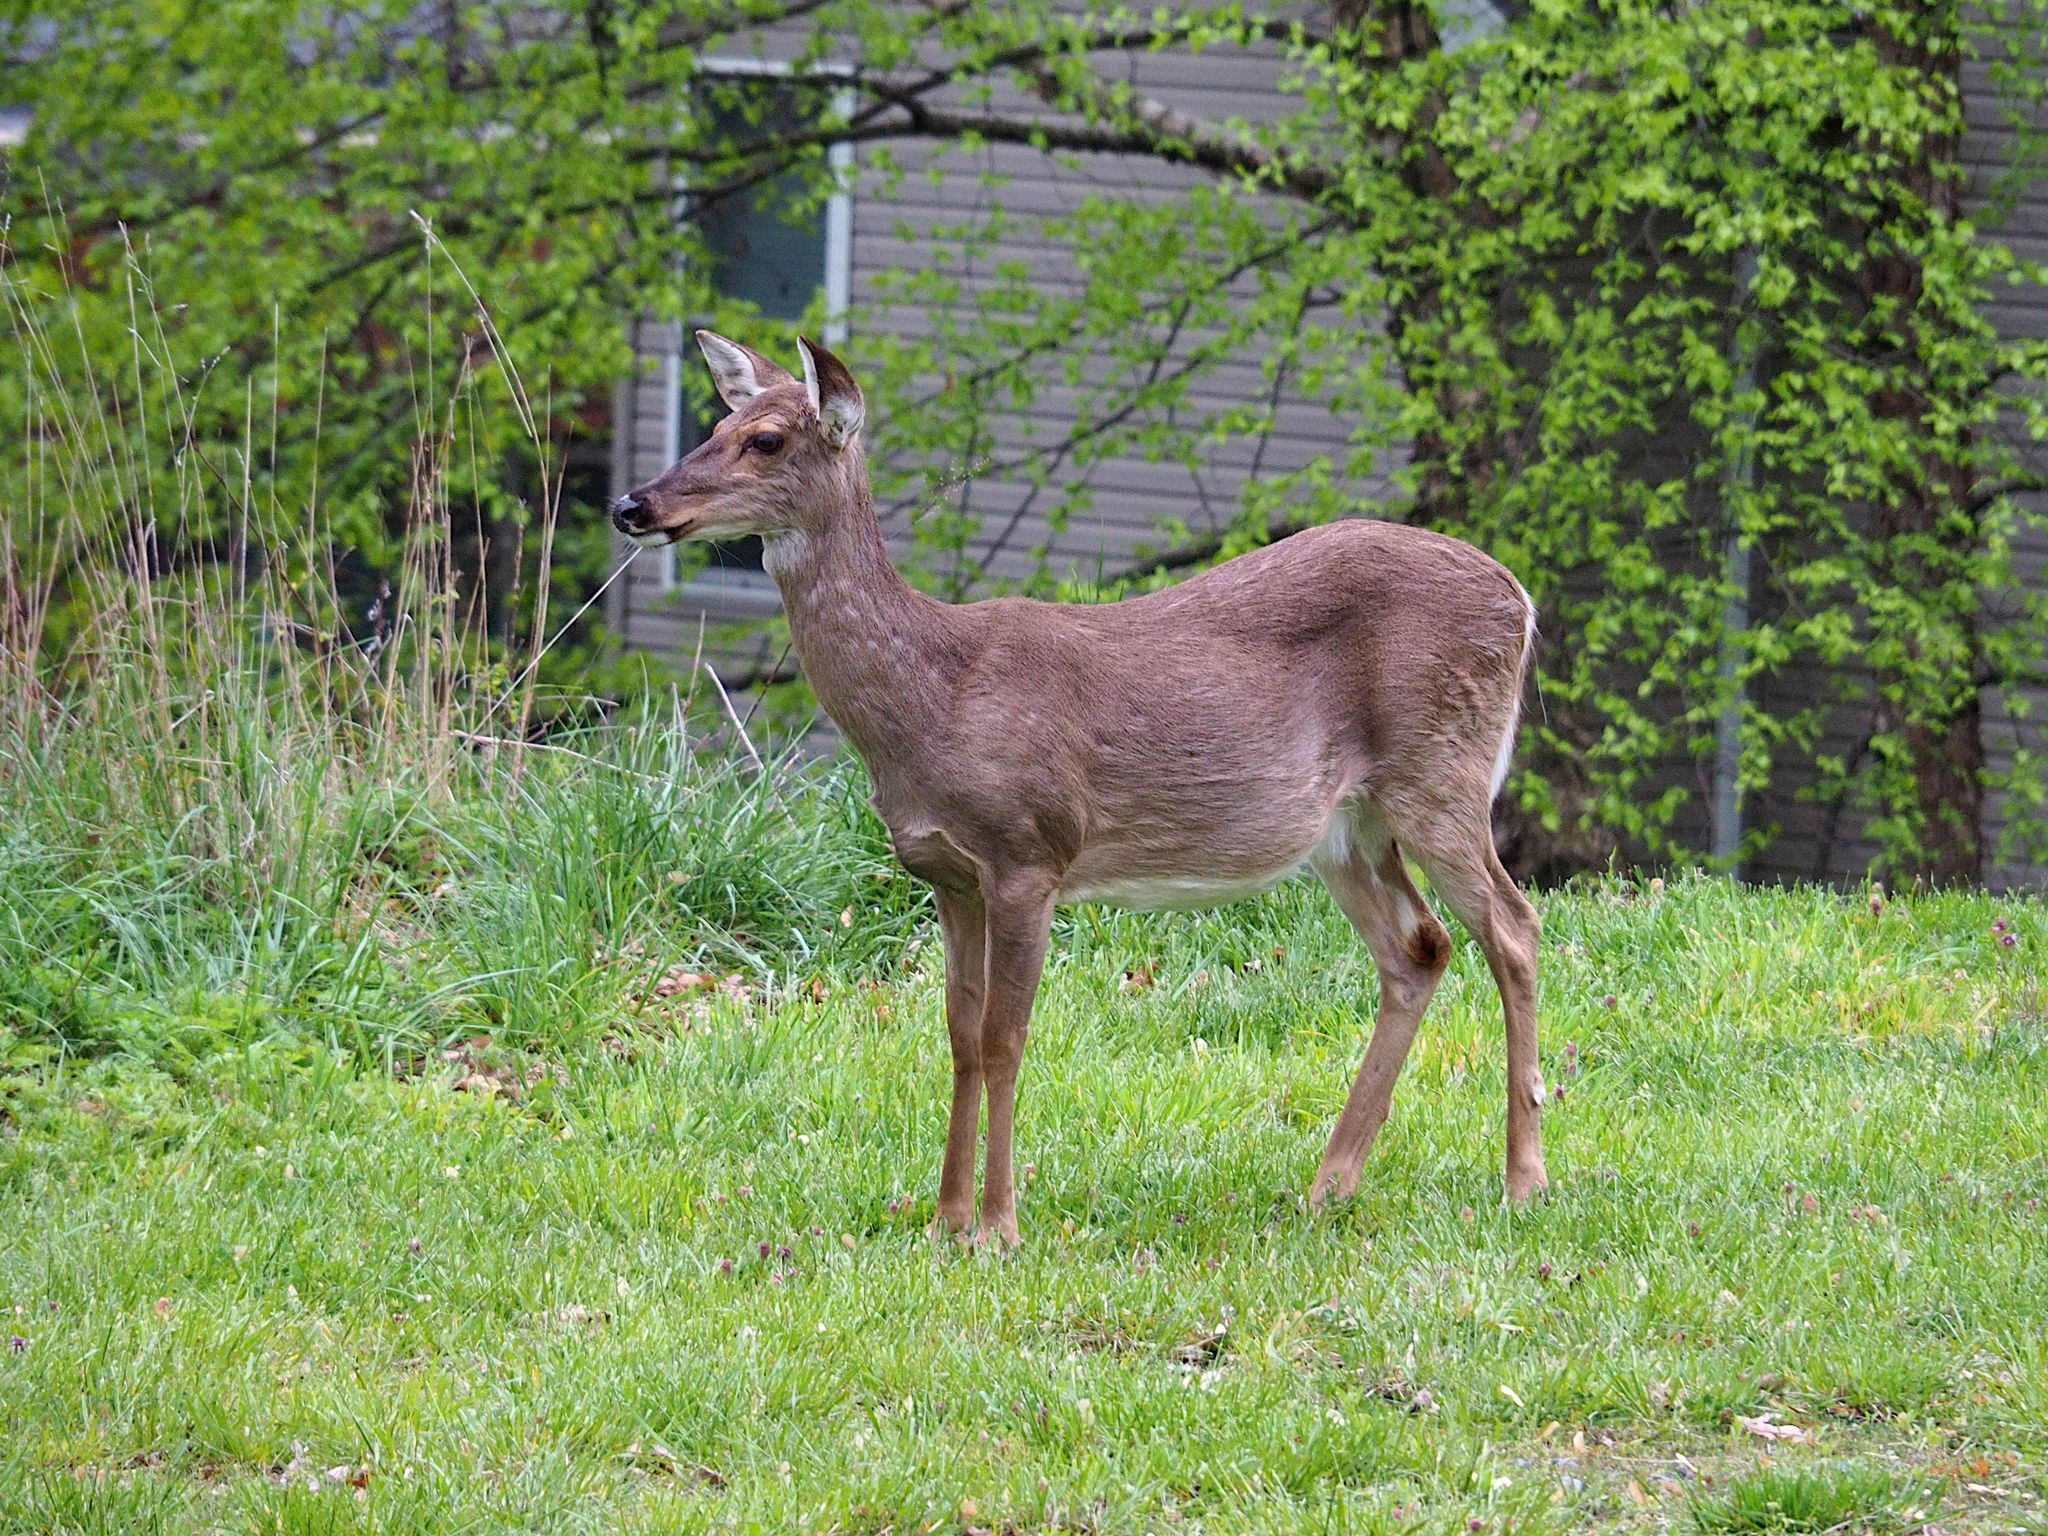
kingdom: Animalia
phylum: Chordata
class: Mammalia
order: Artiodactyla
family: Cervidae
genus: Odocoileus
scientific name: Odocoileus virginianus
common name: White-tailed deer
